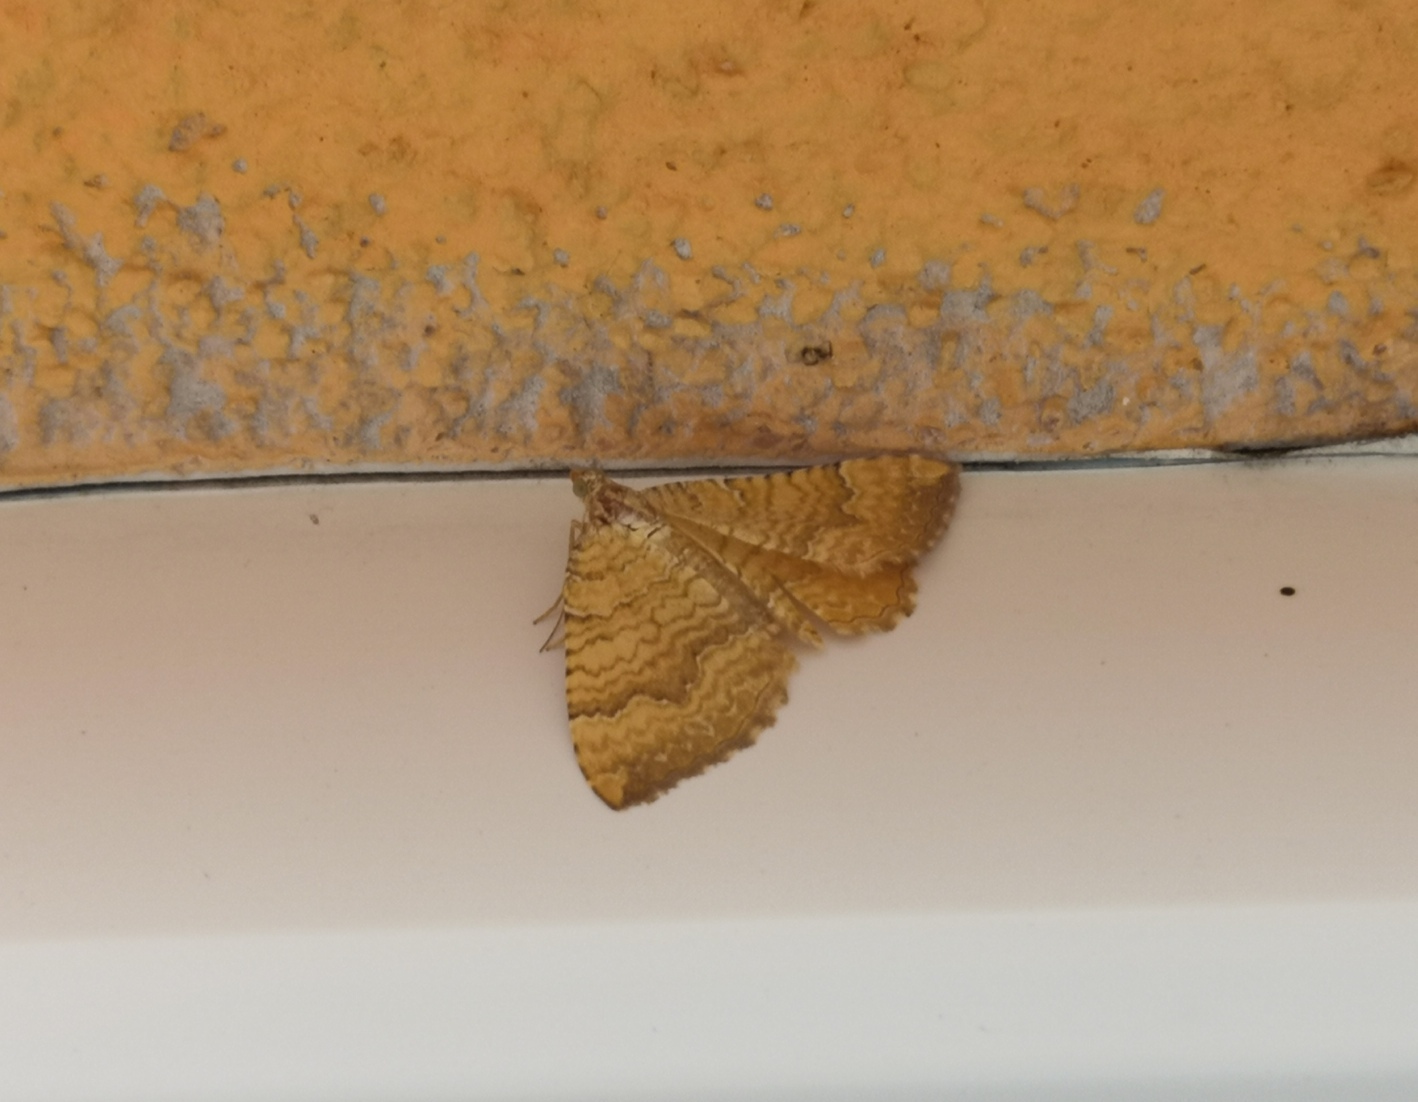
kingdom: Animalia
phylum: Arthropoda
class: Insecta
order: Lepidoptera
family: Geometridae
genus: Camptogramma
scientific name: Camptogramma bilineata
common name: Yellow shell
